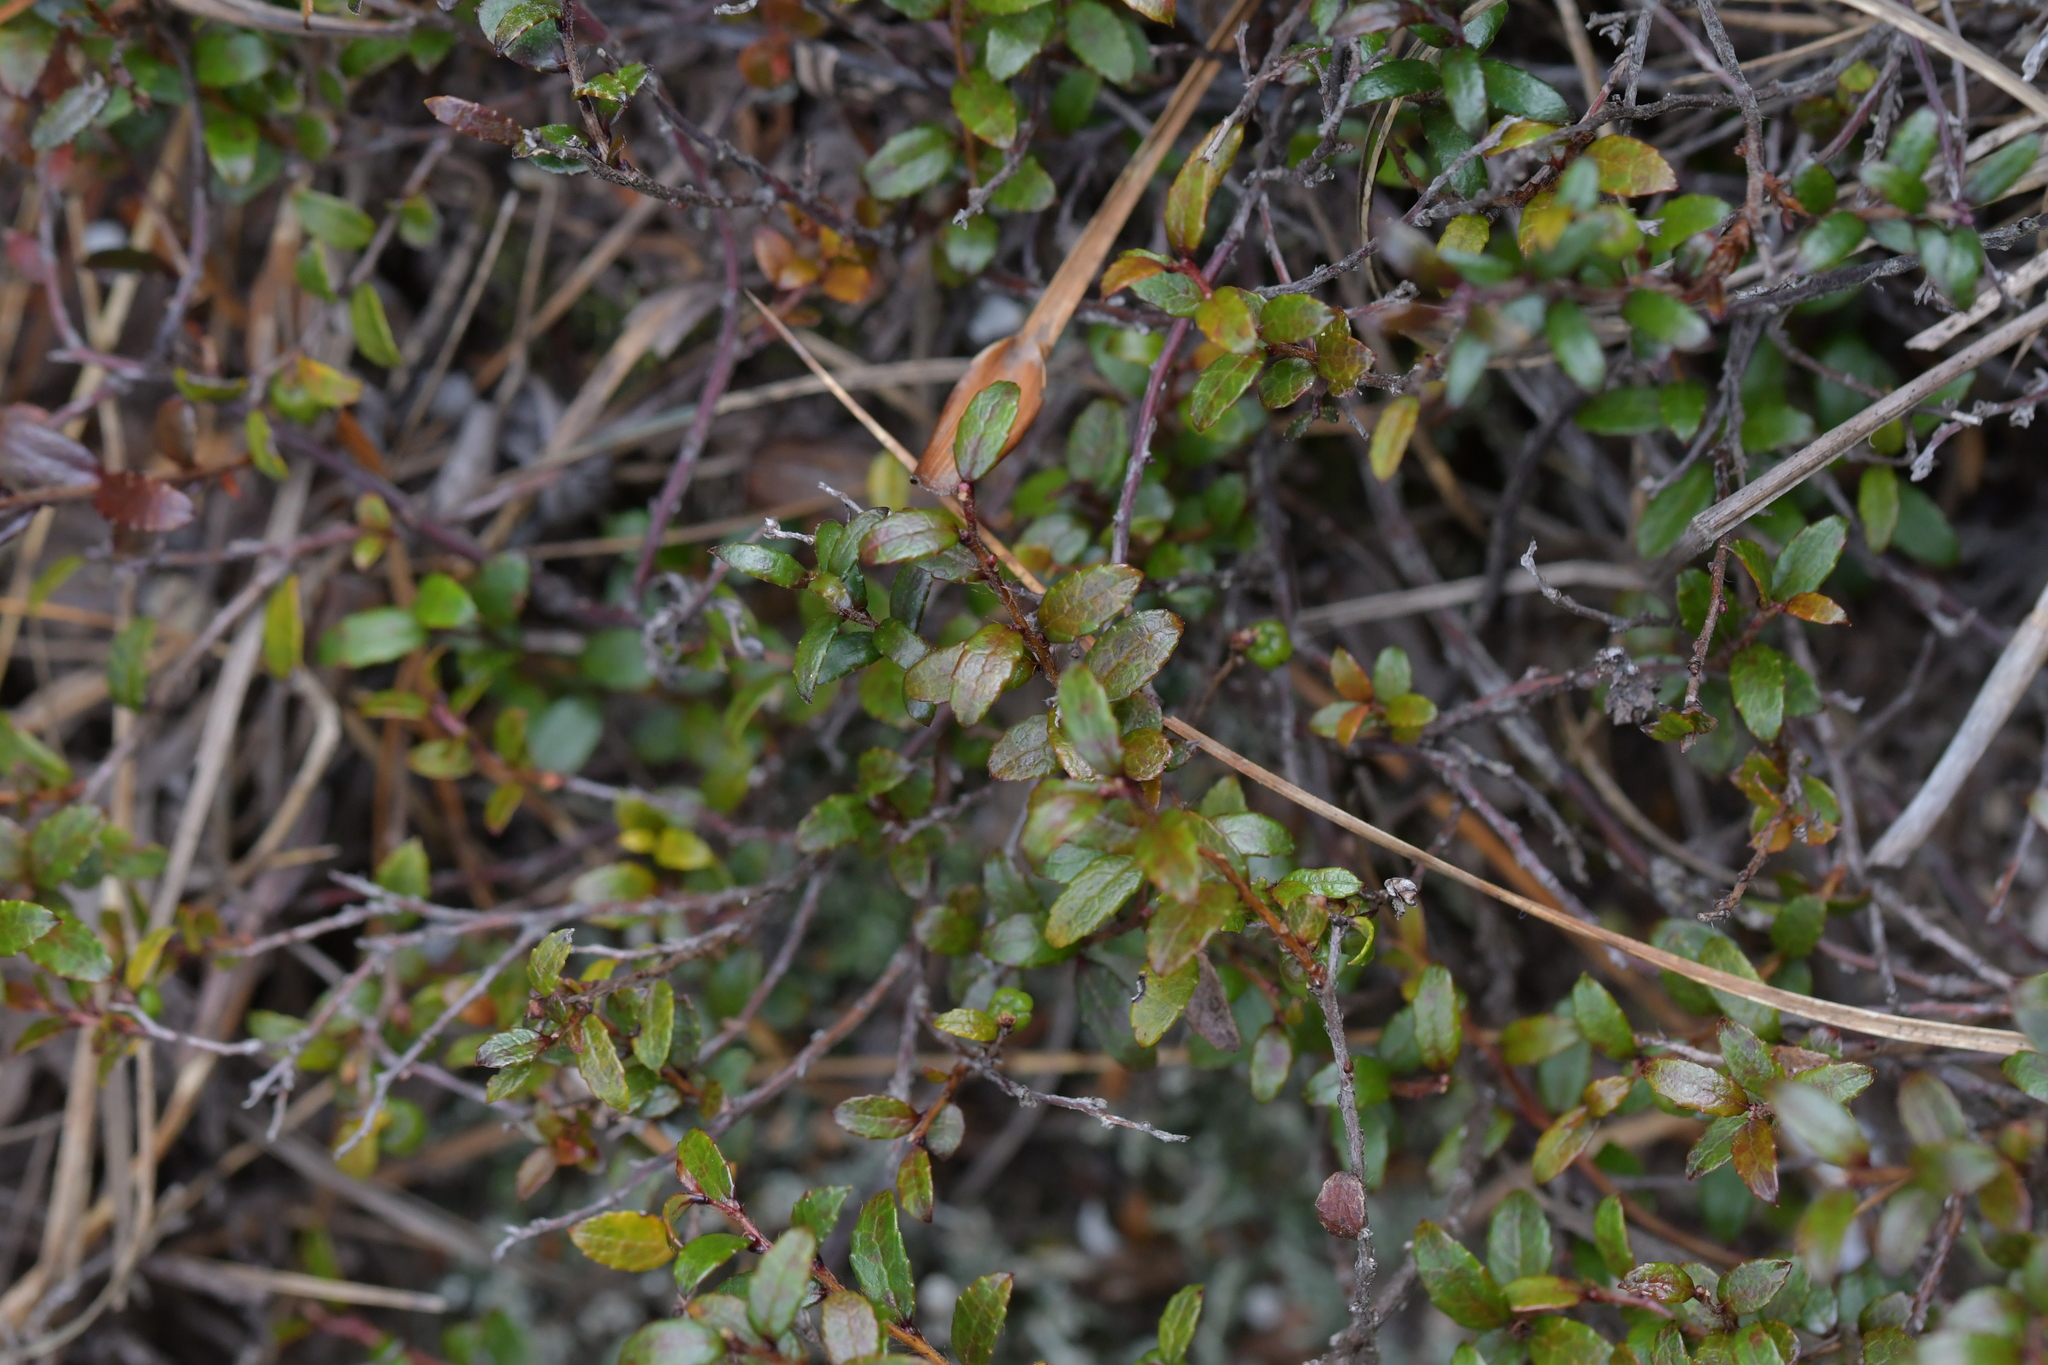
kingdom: Plantae
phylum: Tracheophyta
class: Magnoliopsida
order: Ericales
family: Ericaceae
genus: Gaultheria
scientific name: Gaultheria
